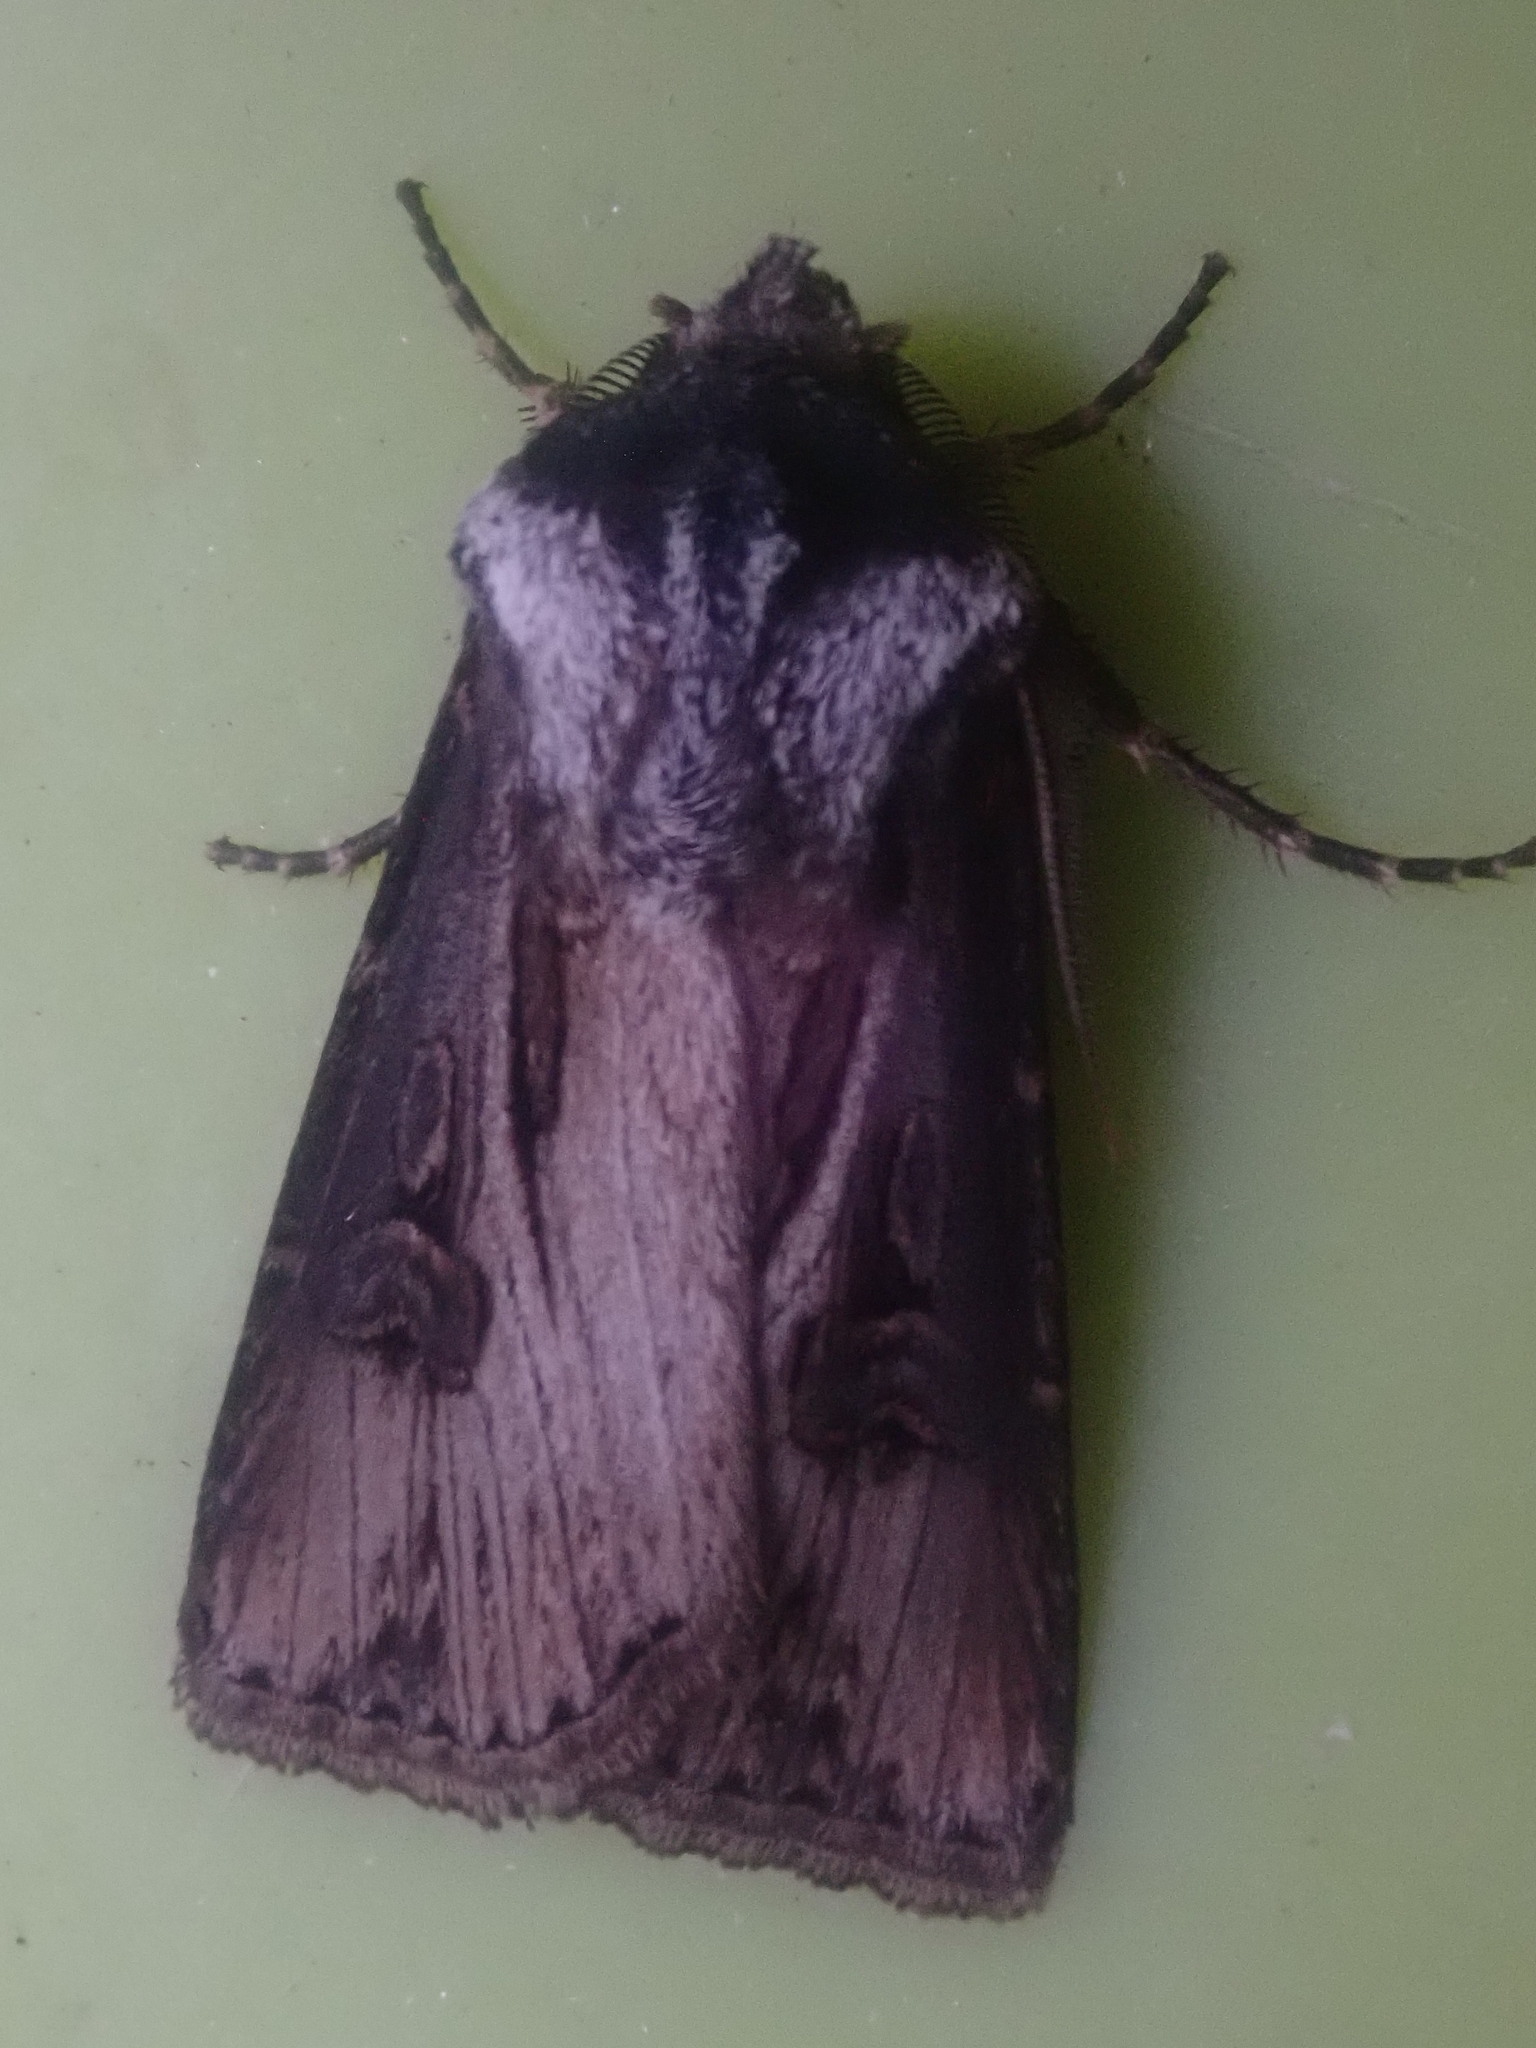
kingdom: Animalia
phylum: Arthropoda
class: Insecta
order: Lepidoptera
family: Noctuidae
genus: Agrotis
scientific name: Agrotis venerabilis
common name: Venerable dart
